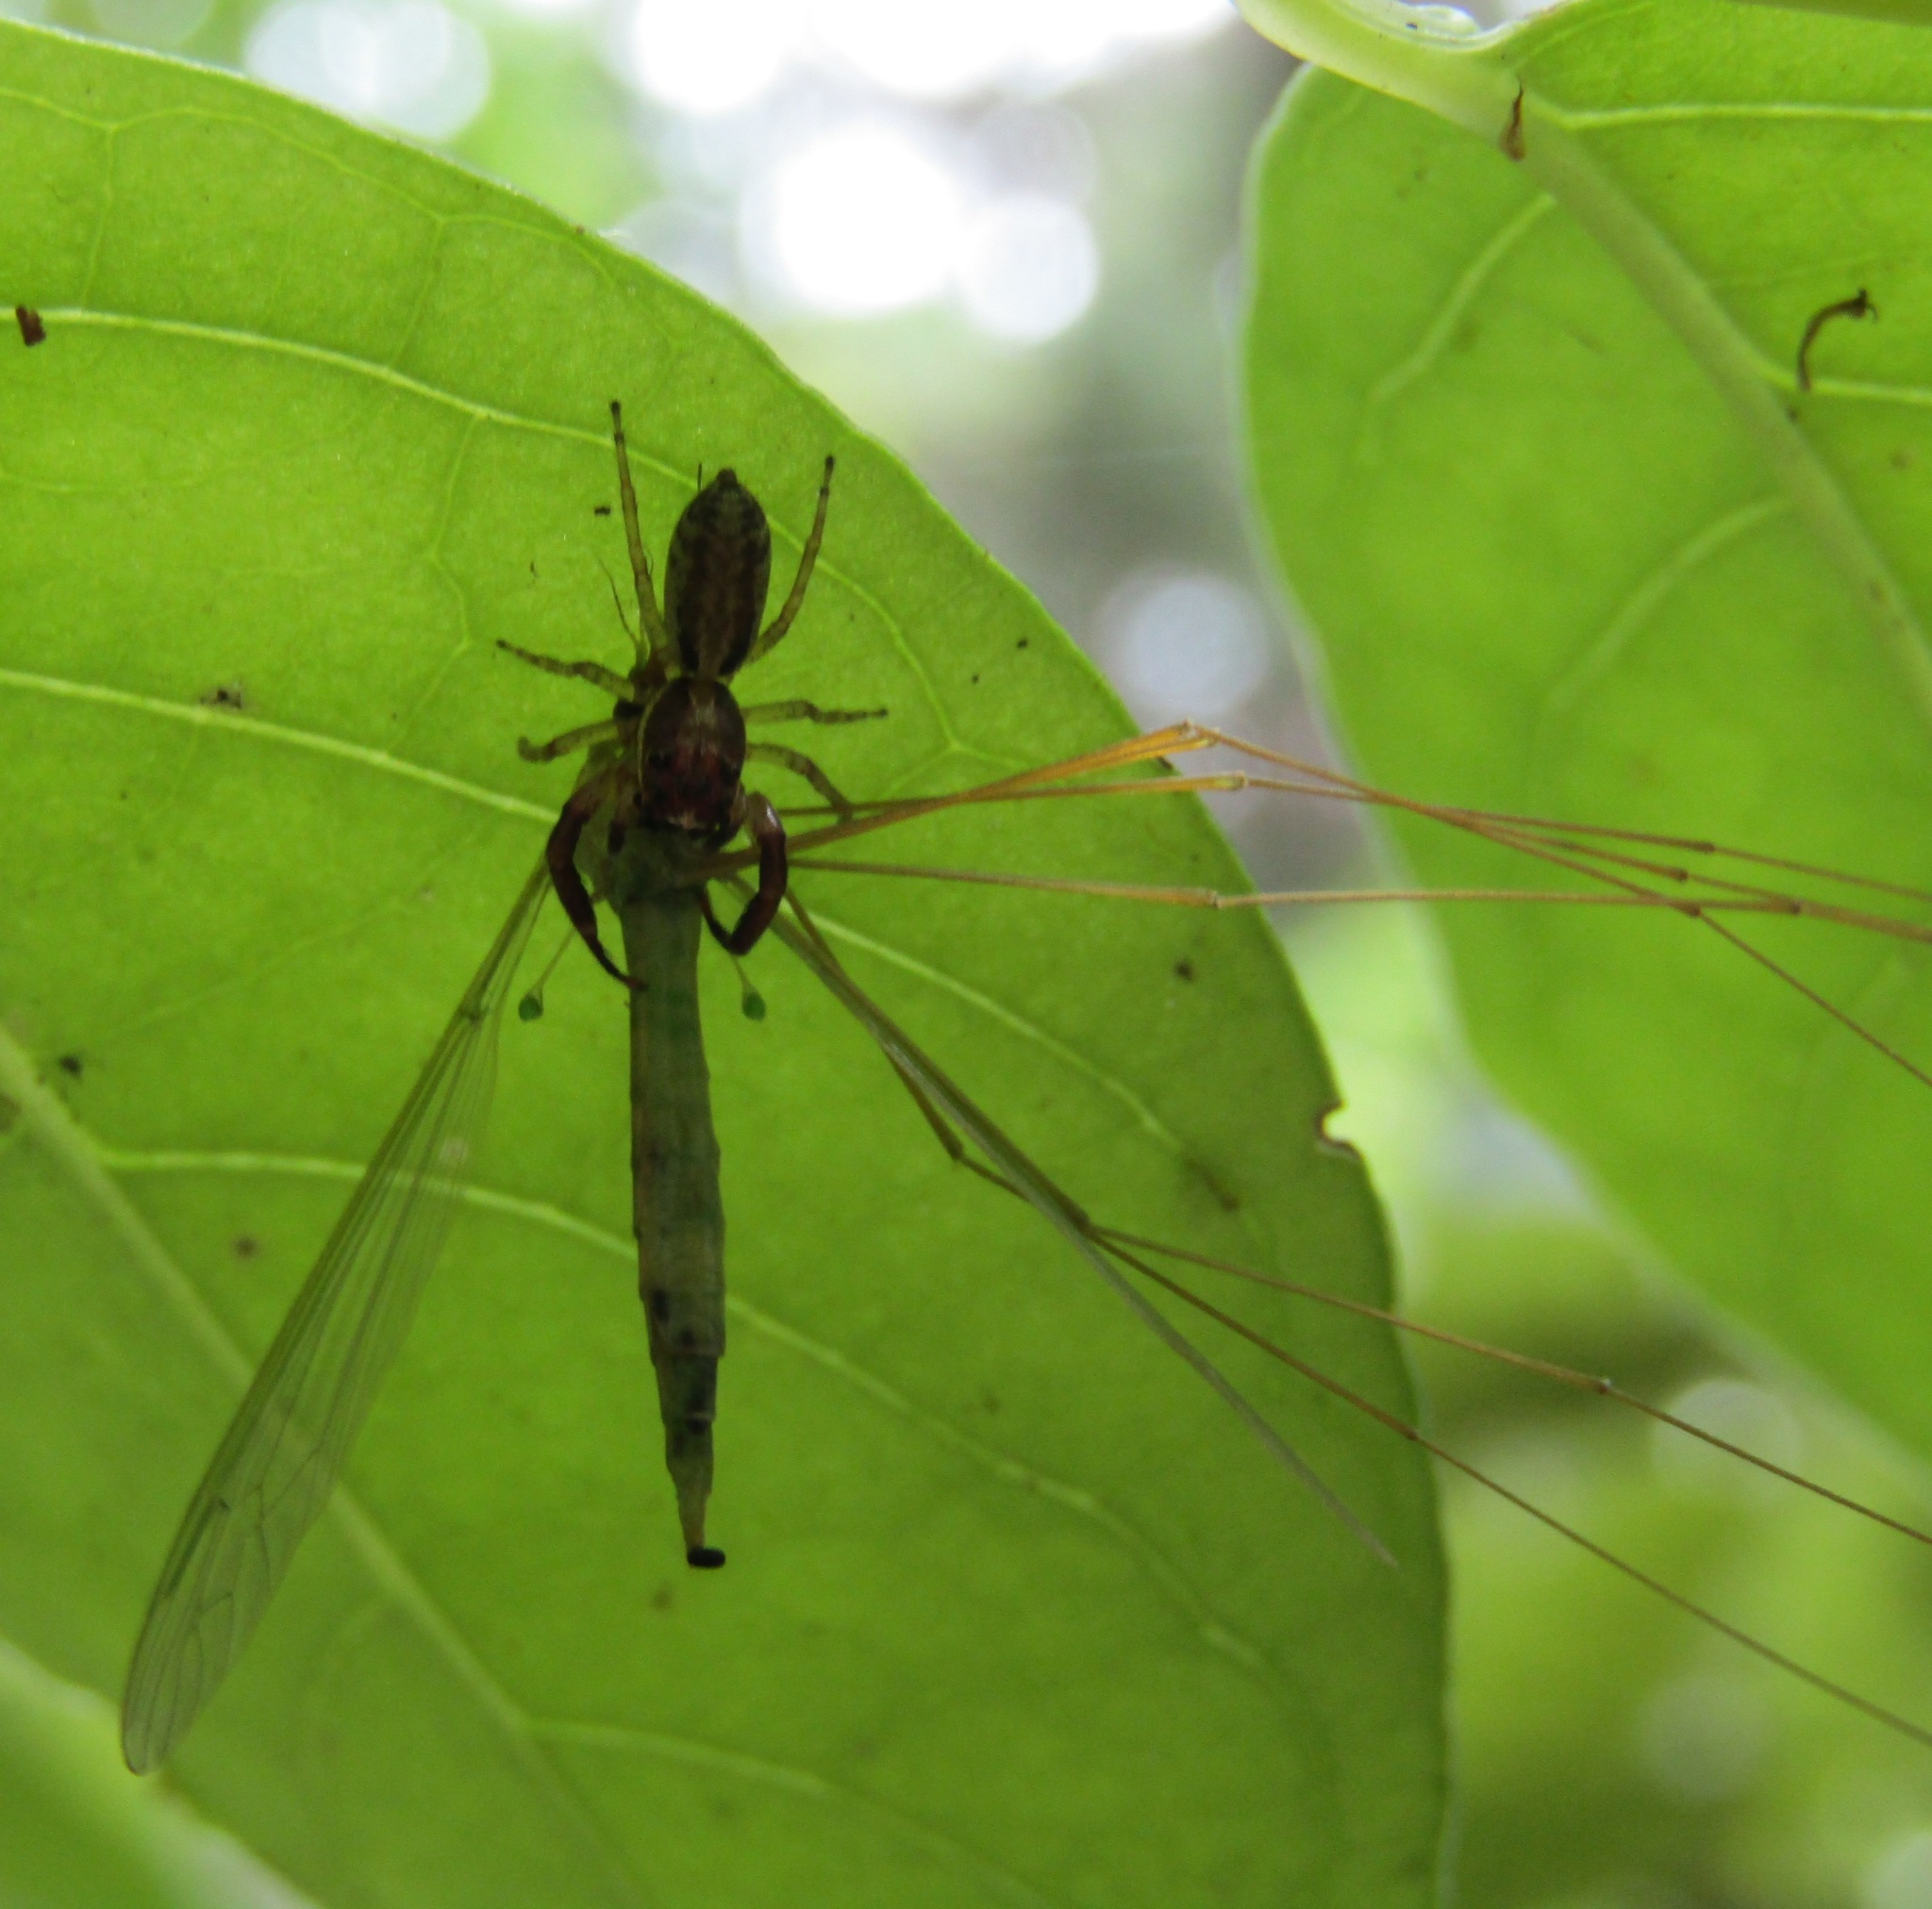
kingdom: Animalia
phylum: Arthropoda
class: Arachnida
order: Araneae
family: Salticidae
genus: Trite
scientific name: Trite mustilina
